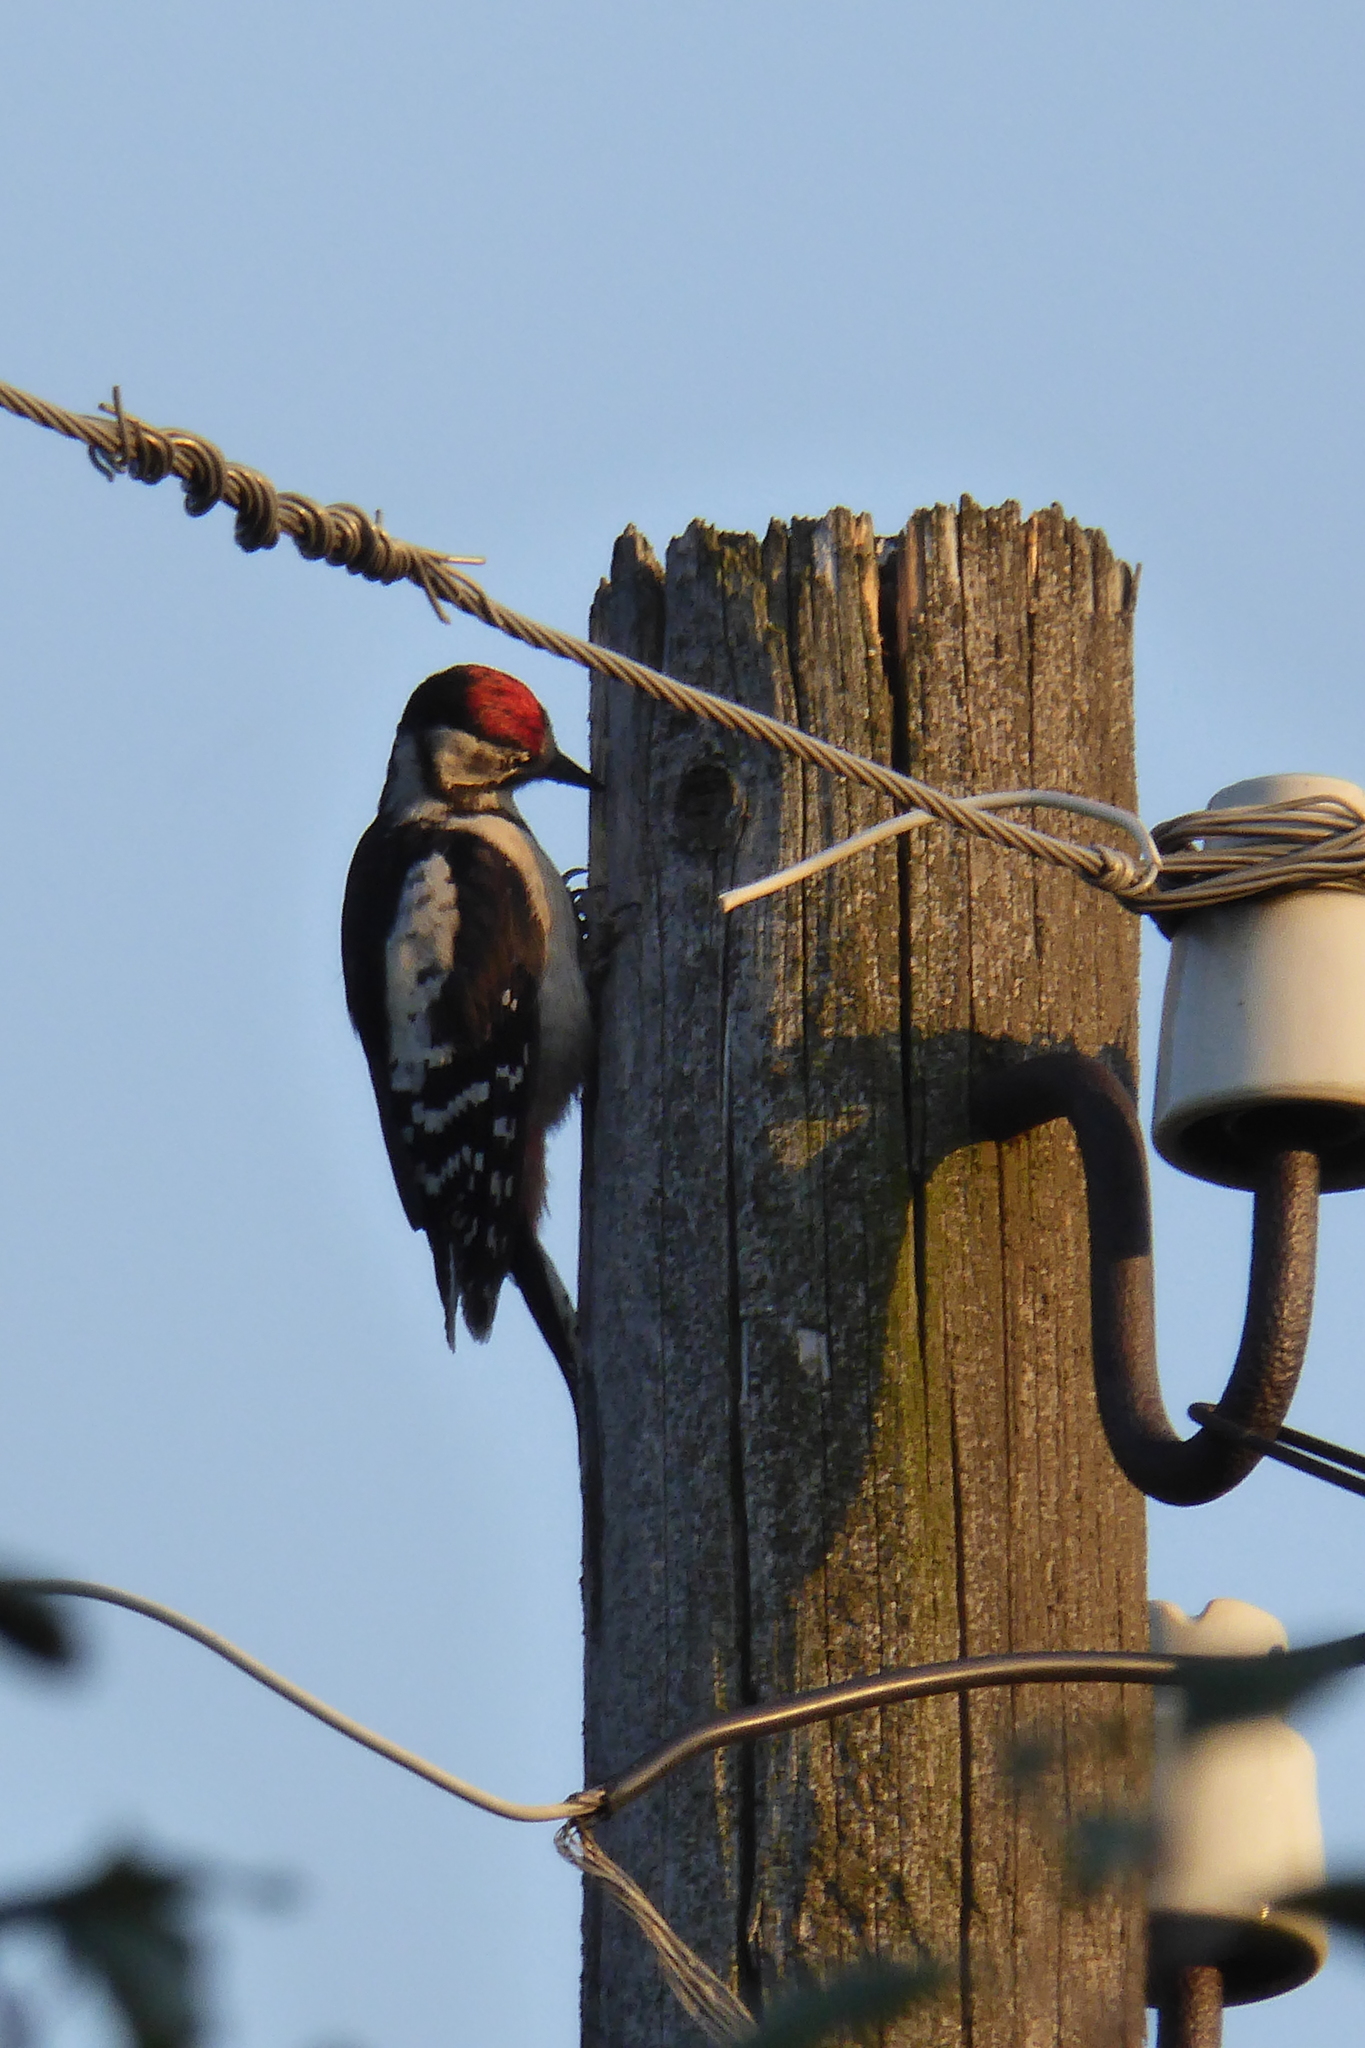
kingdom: Animalia
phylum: Chordata
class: Aves
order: Piciformes
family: Picidae
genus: Dendrocopos
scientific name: Dendrocopos major
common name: Great spotted woodpecker
